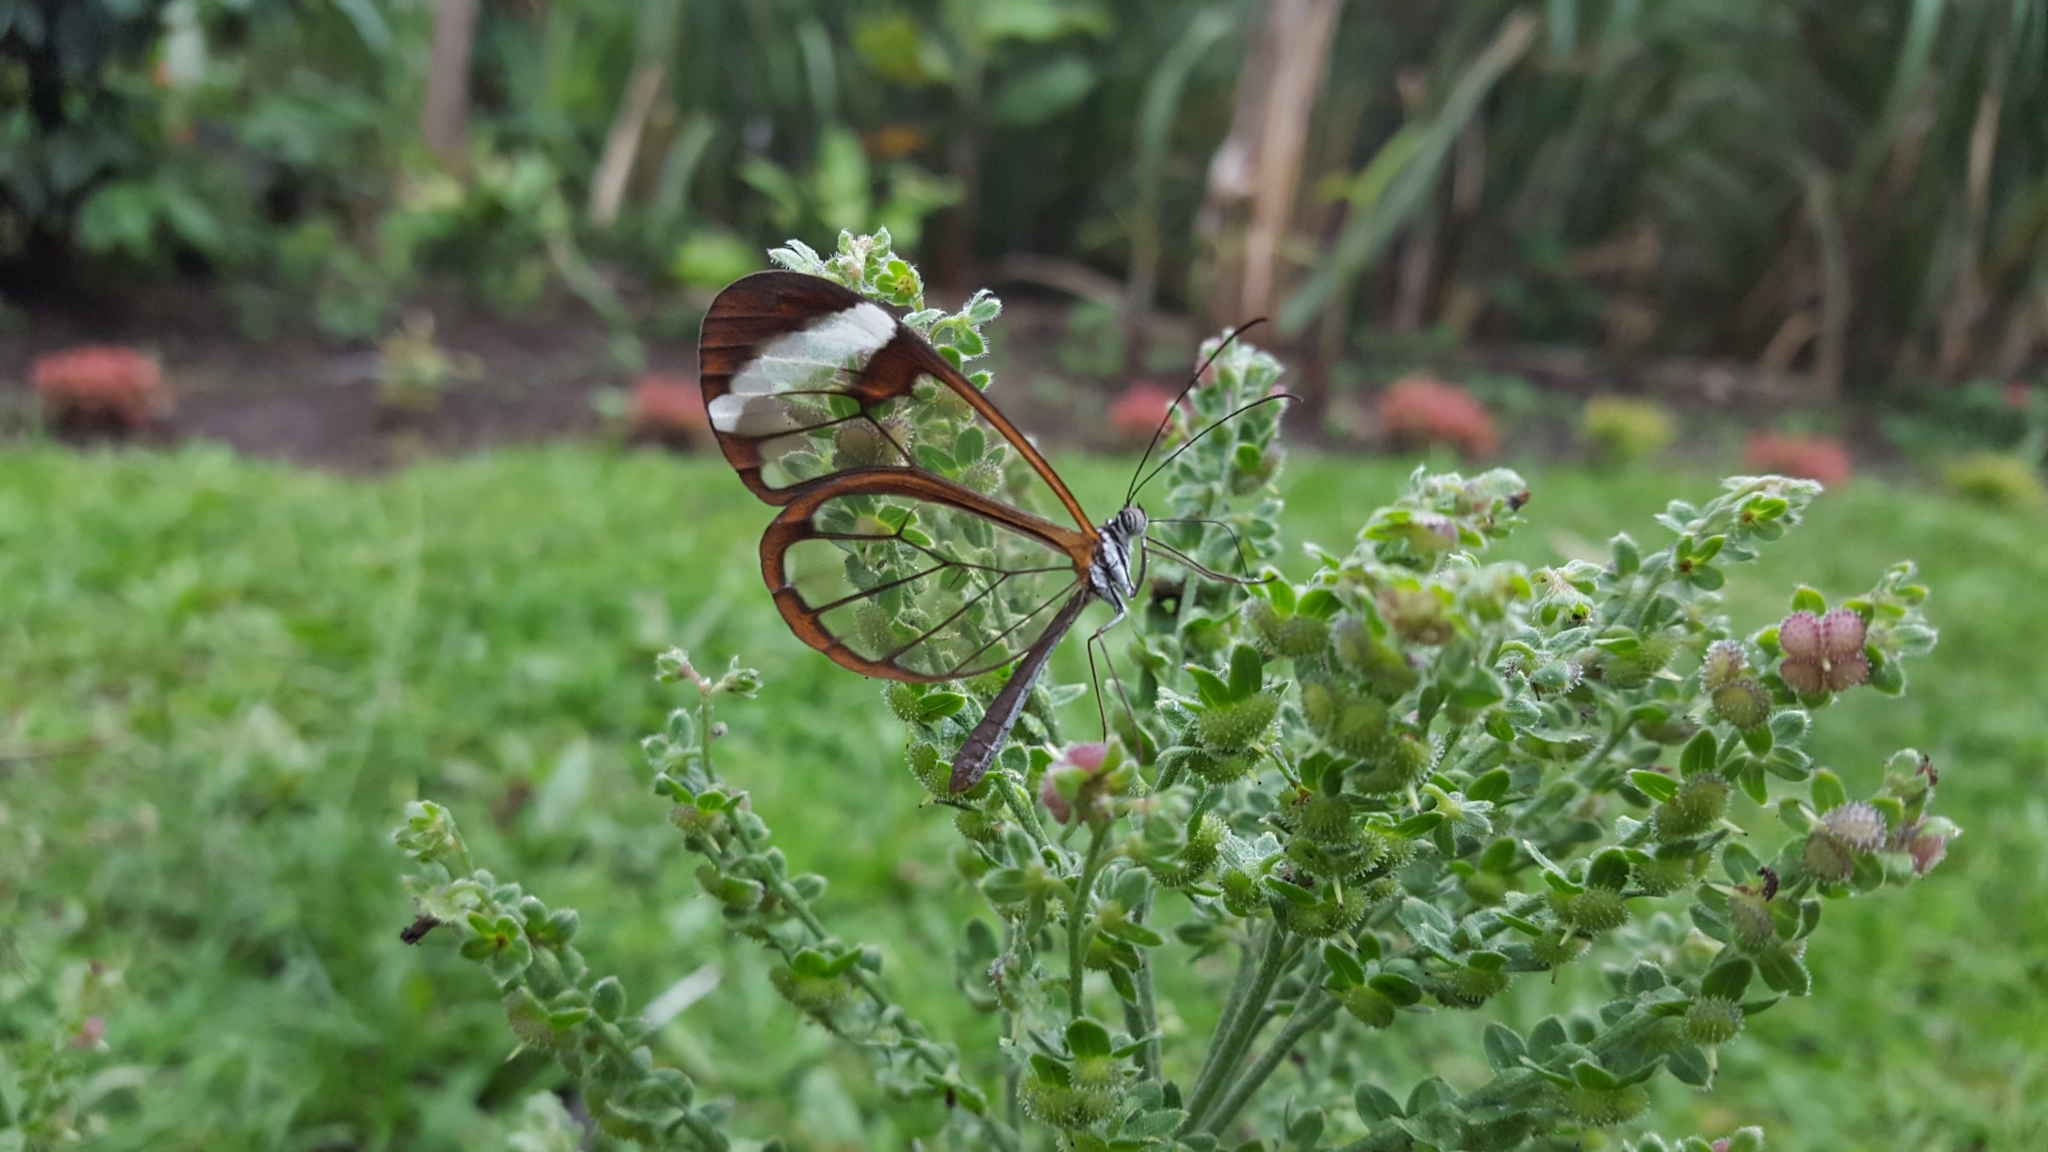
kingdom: Animalia
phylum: Arthropoda
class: Insecta
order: Lepidoptera
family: Nymphalidae
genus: Greta
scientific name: Greta morgane
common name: Thick-tipped greta
